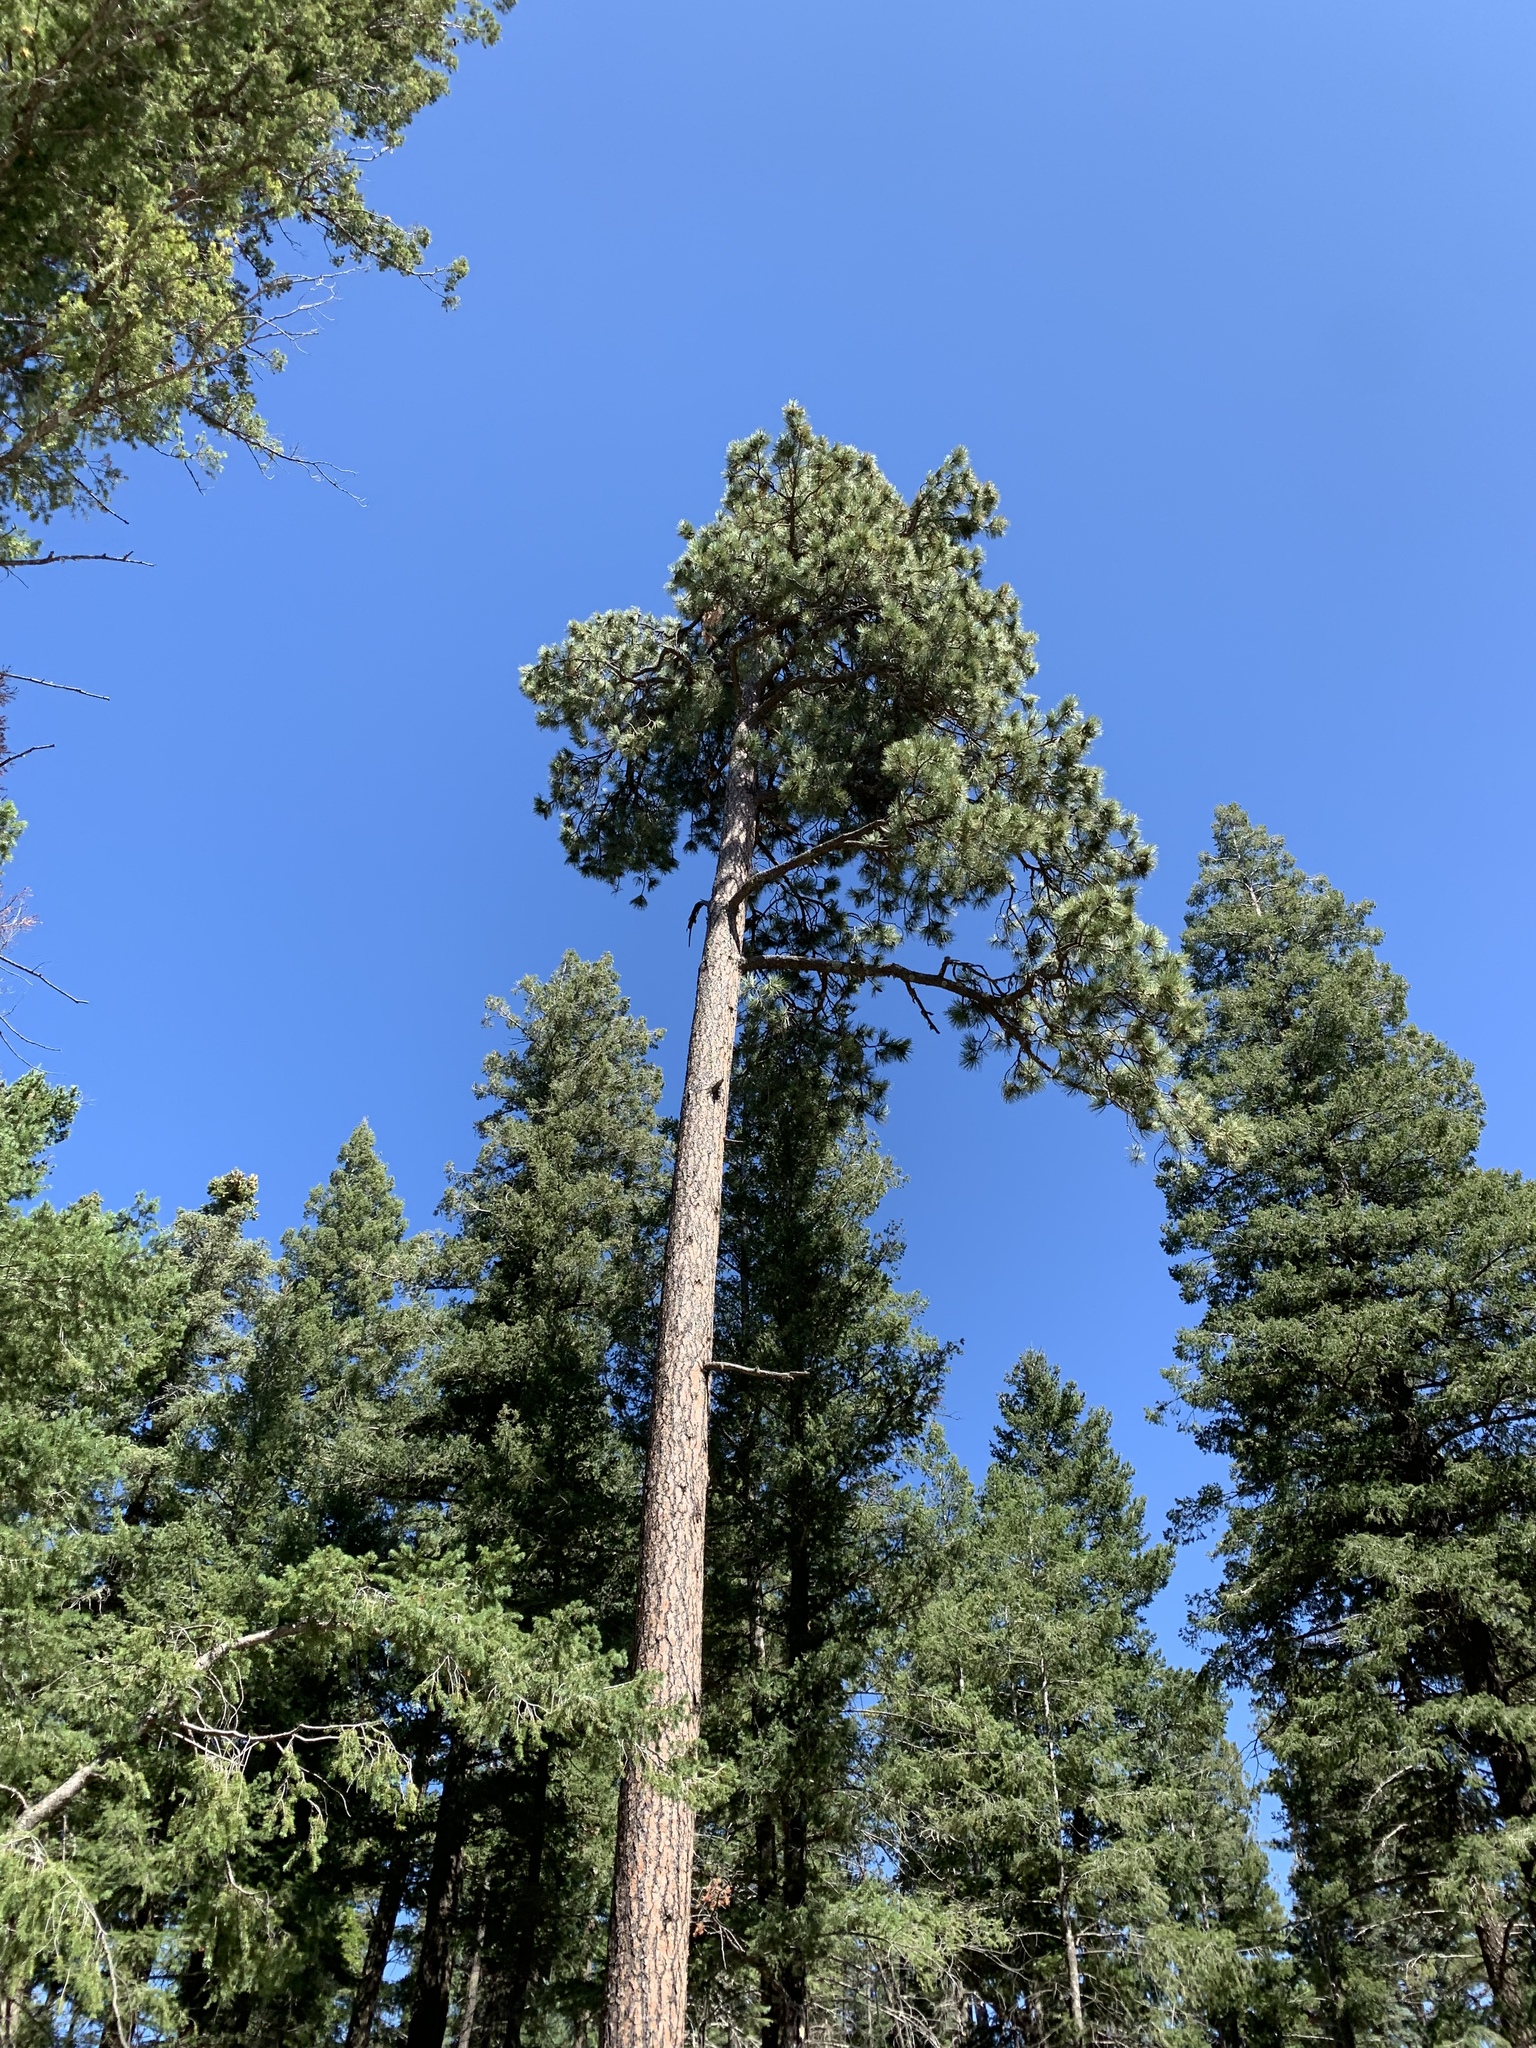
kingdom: Plantae
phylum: Tracheophyta
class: Pinopsida
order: Pinales
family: Pinaceae
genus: Pinus
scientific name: Pinus ponderosa
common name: Western yellow-pine
